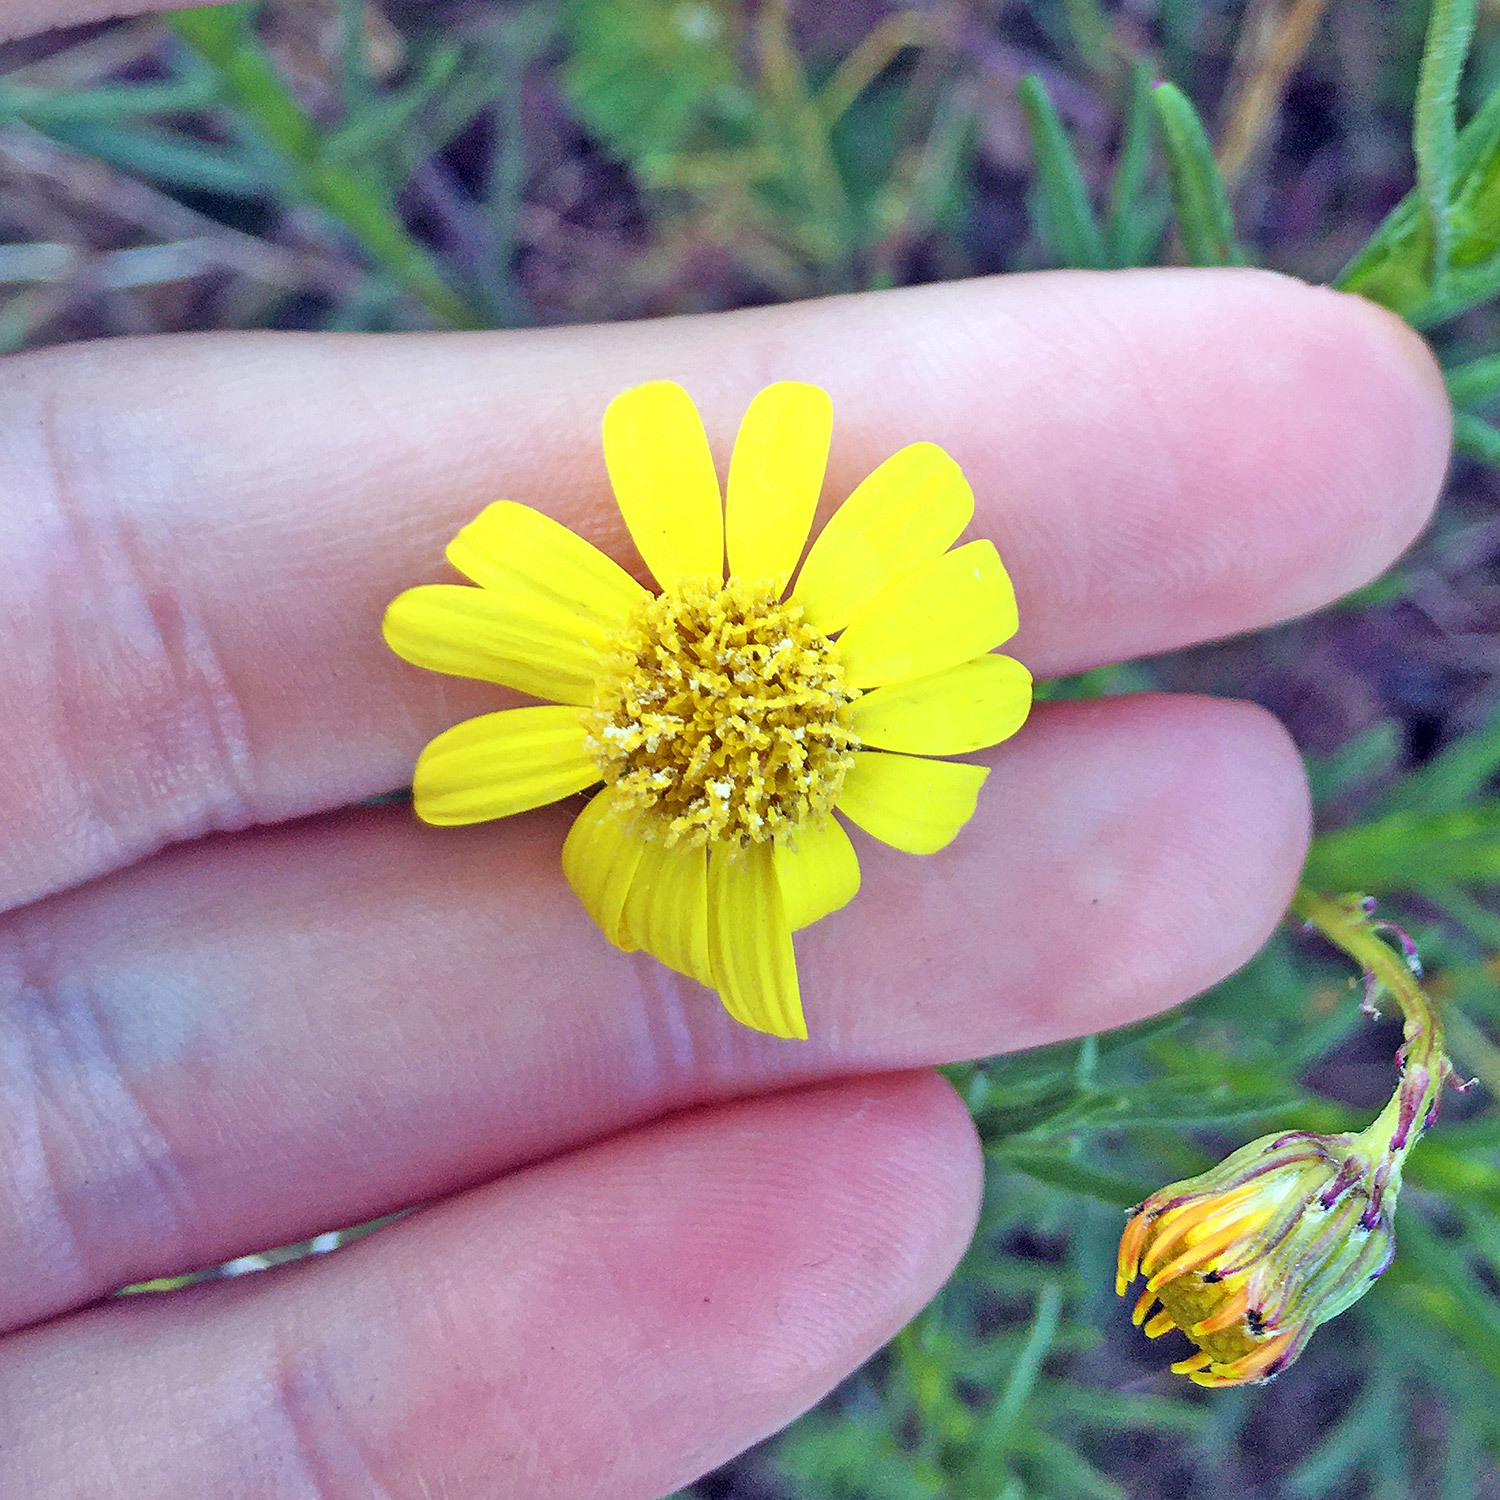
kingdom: Plantae
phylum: Tracheophyta
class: Magnoliopsida
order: Asterales
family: Asteraceae
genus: Senecio
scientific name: Senecio inaequidens
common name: Narrow-leaved ragwort
